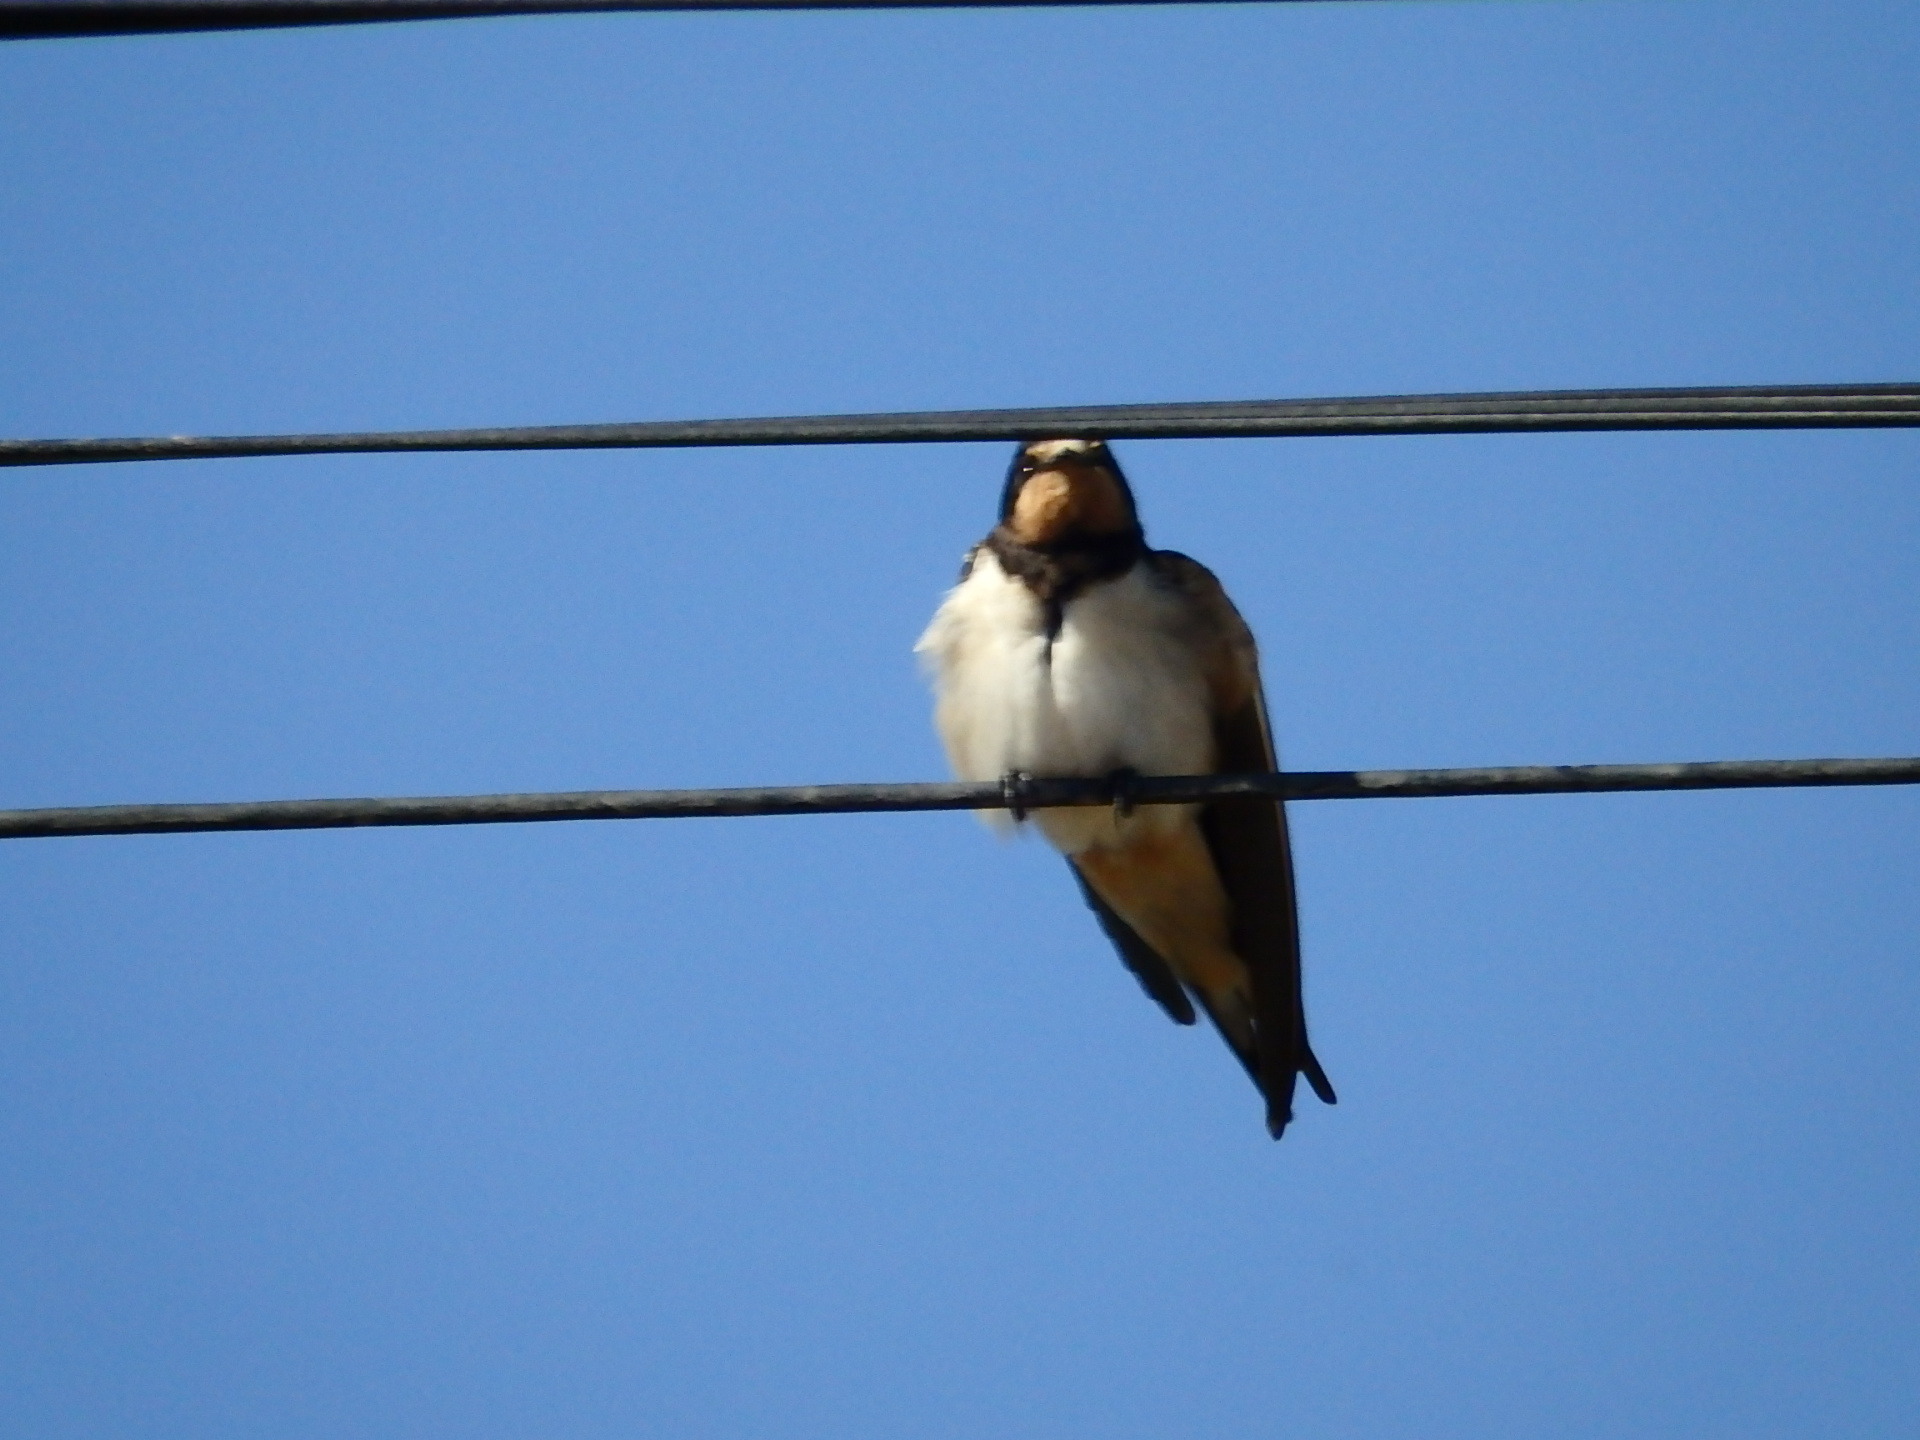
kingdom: Animalia
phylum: Chordata
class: Aves
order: Passeriformes
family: Hirundinidae
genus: Hirundo
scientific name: Hirundo rustica
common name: Barn swallow
